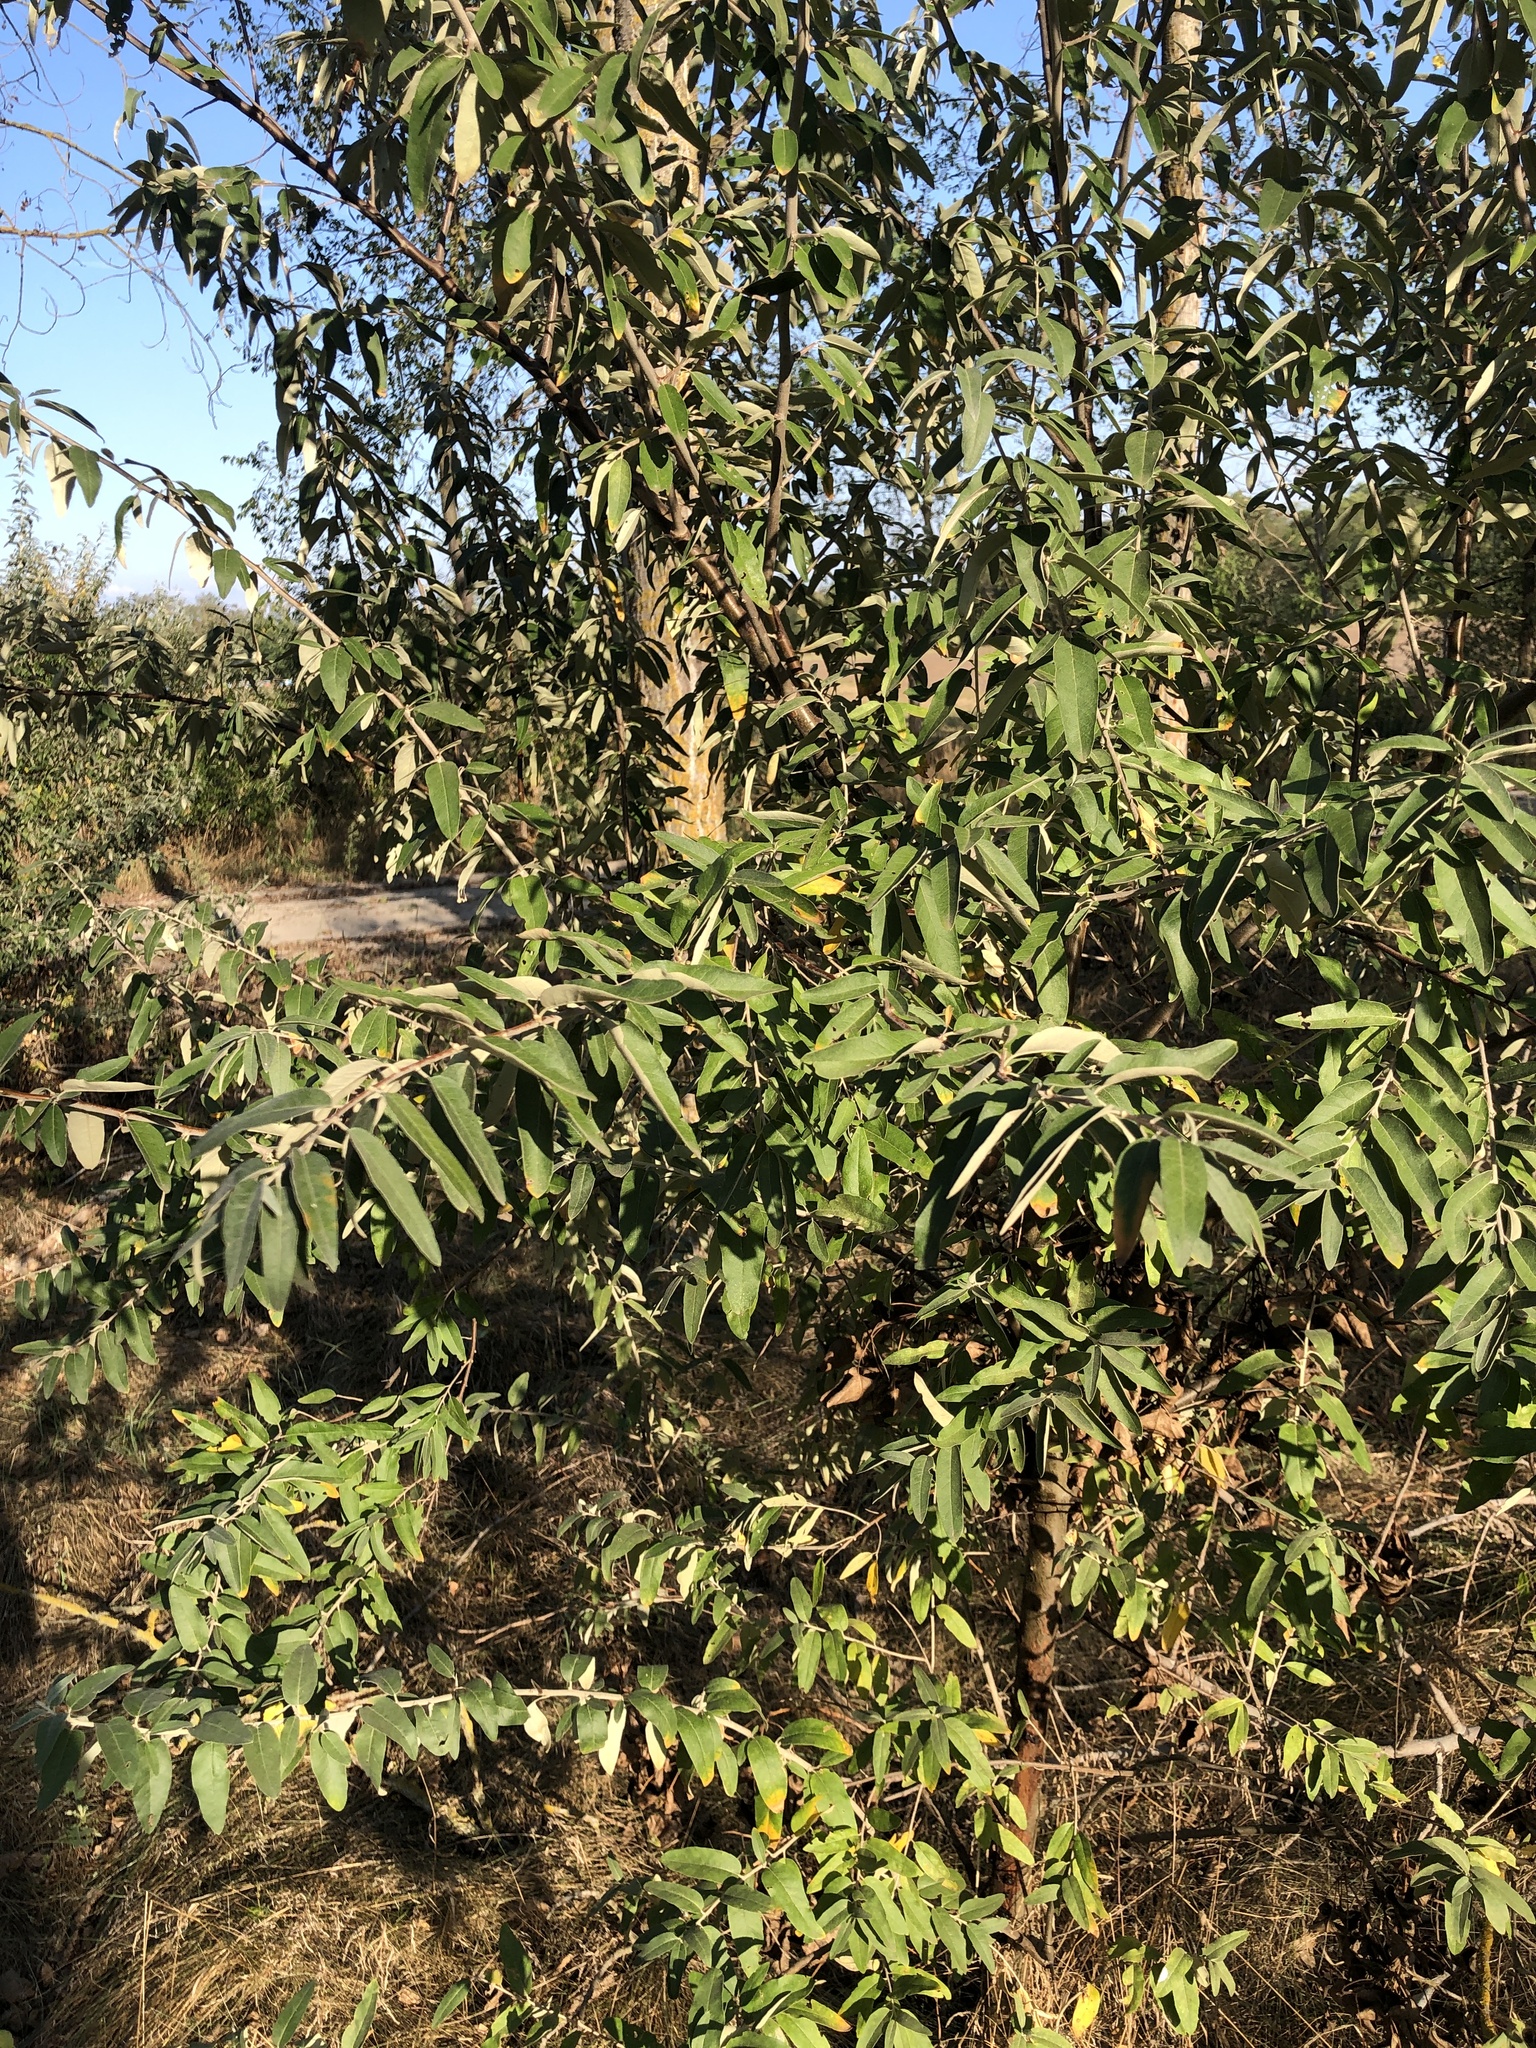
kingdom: Plantae
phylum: Tracheophyta
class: Magnoliopsida
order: Rosales
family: Elaeagnaceae
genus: Elaeagnus
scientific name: Elaeagnus angustifolia
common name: Russian olive
